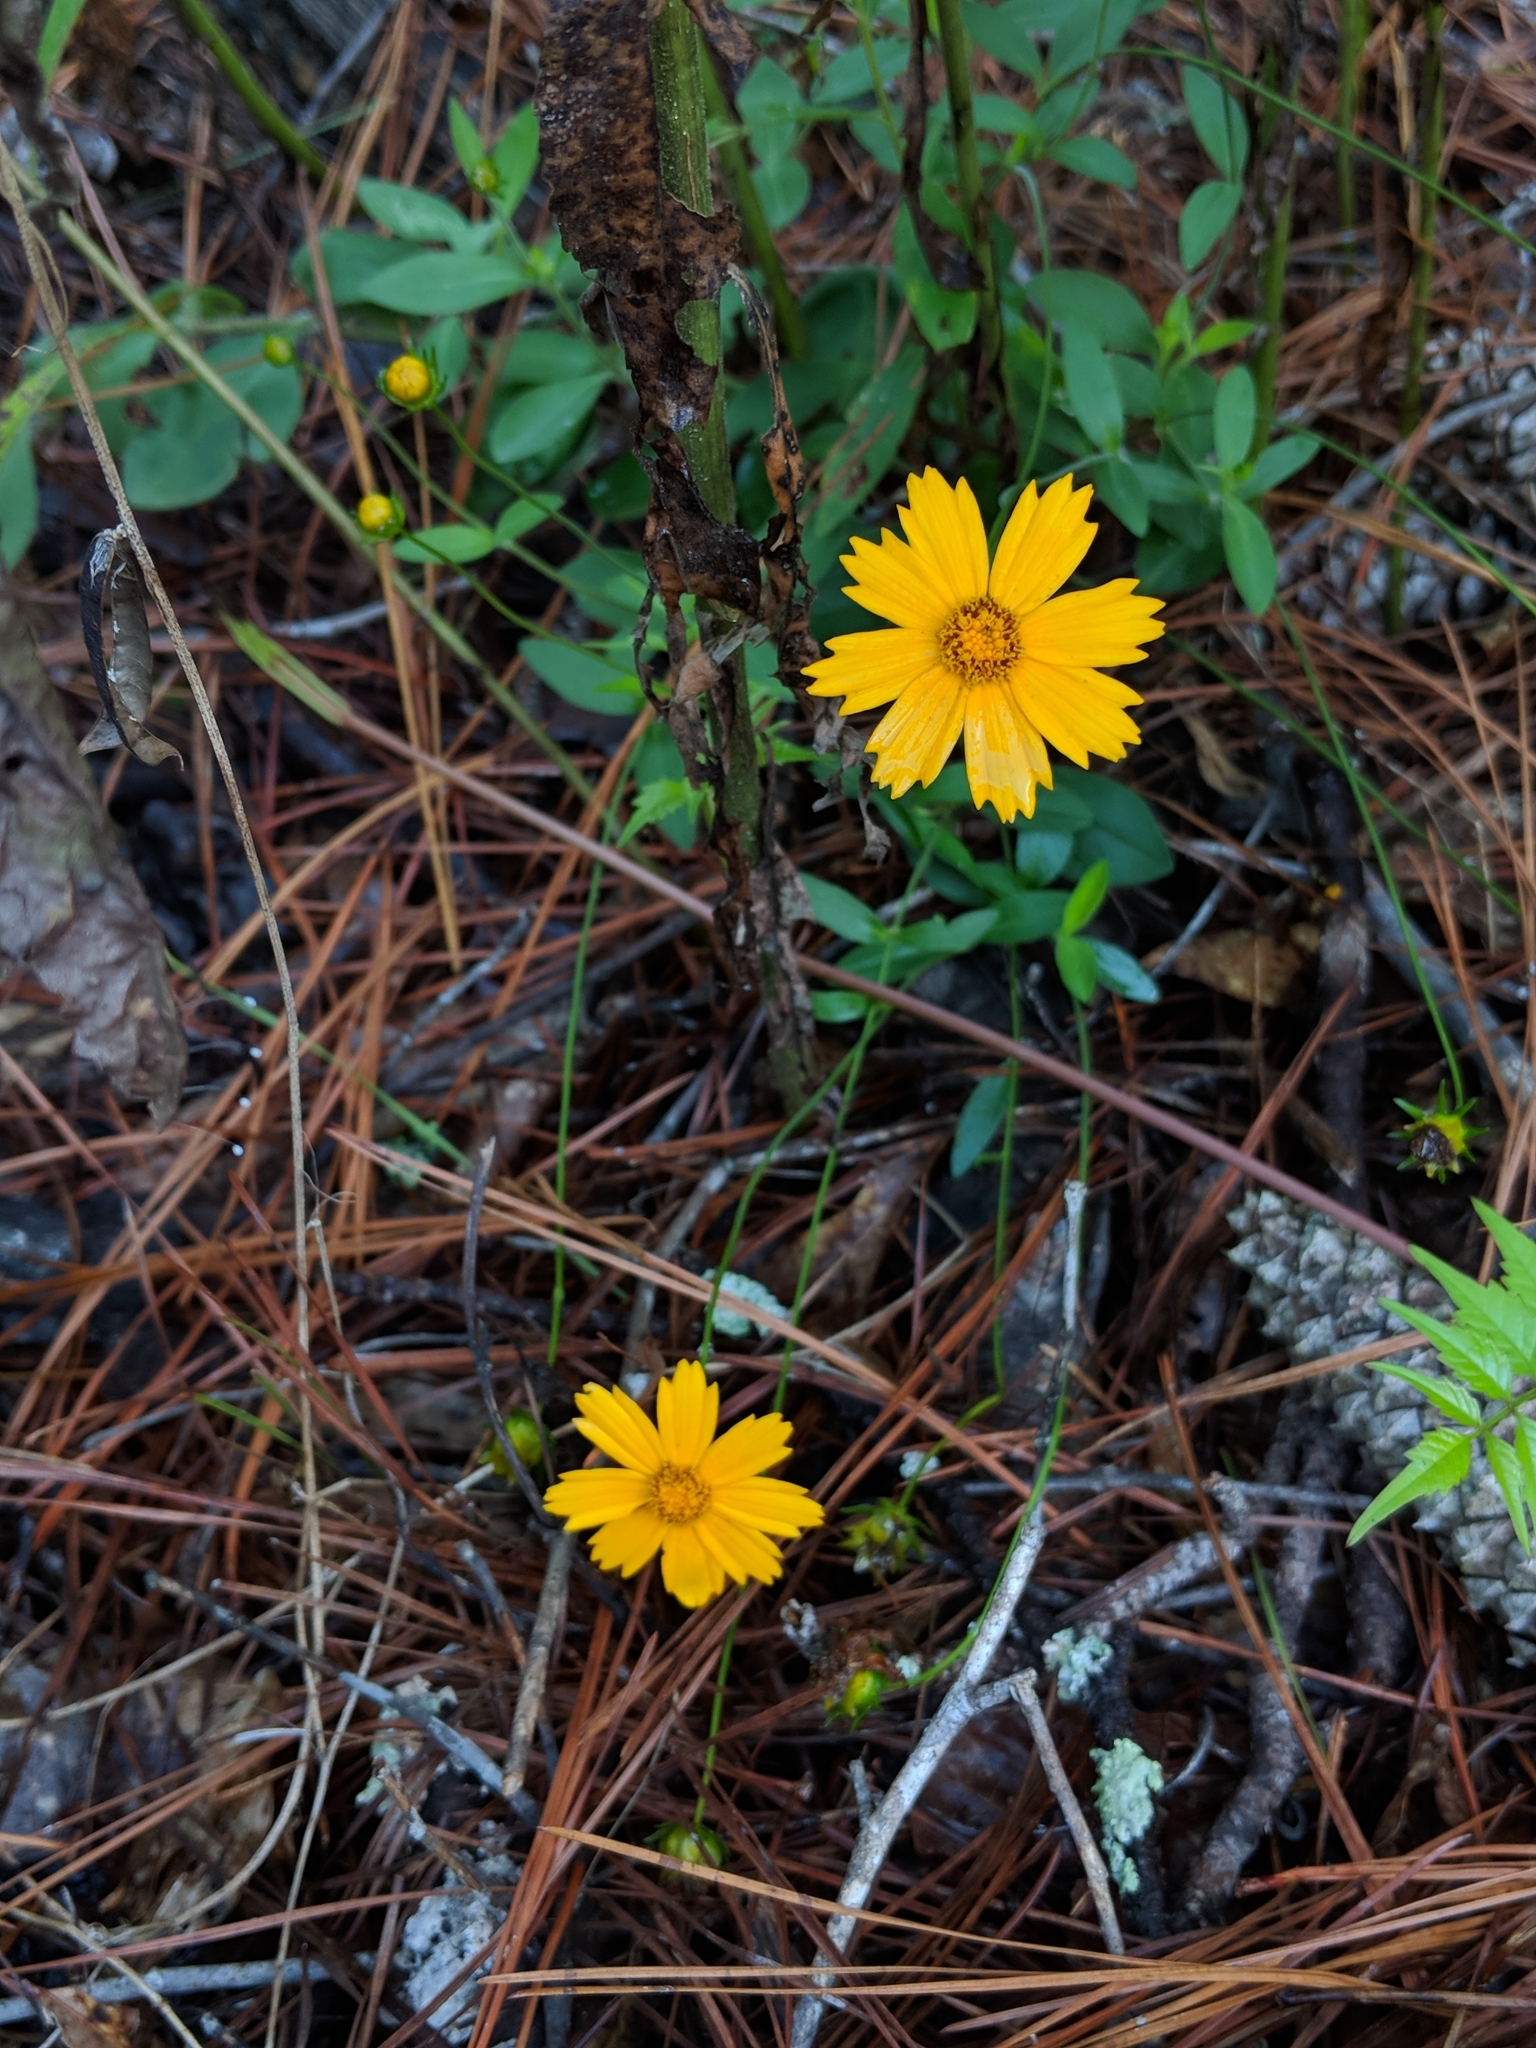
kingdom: Plantae
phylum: Tracheophyta
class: Magnoliopsida
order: Asterales
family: Asteraceae
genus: Coreopsis
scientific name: Coreopsis auriculata
